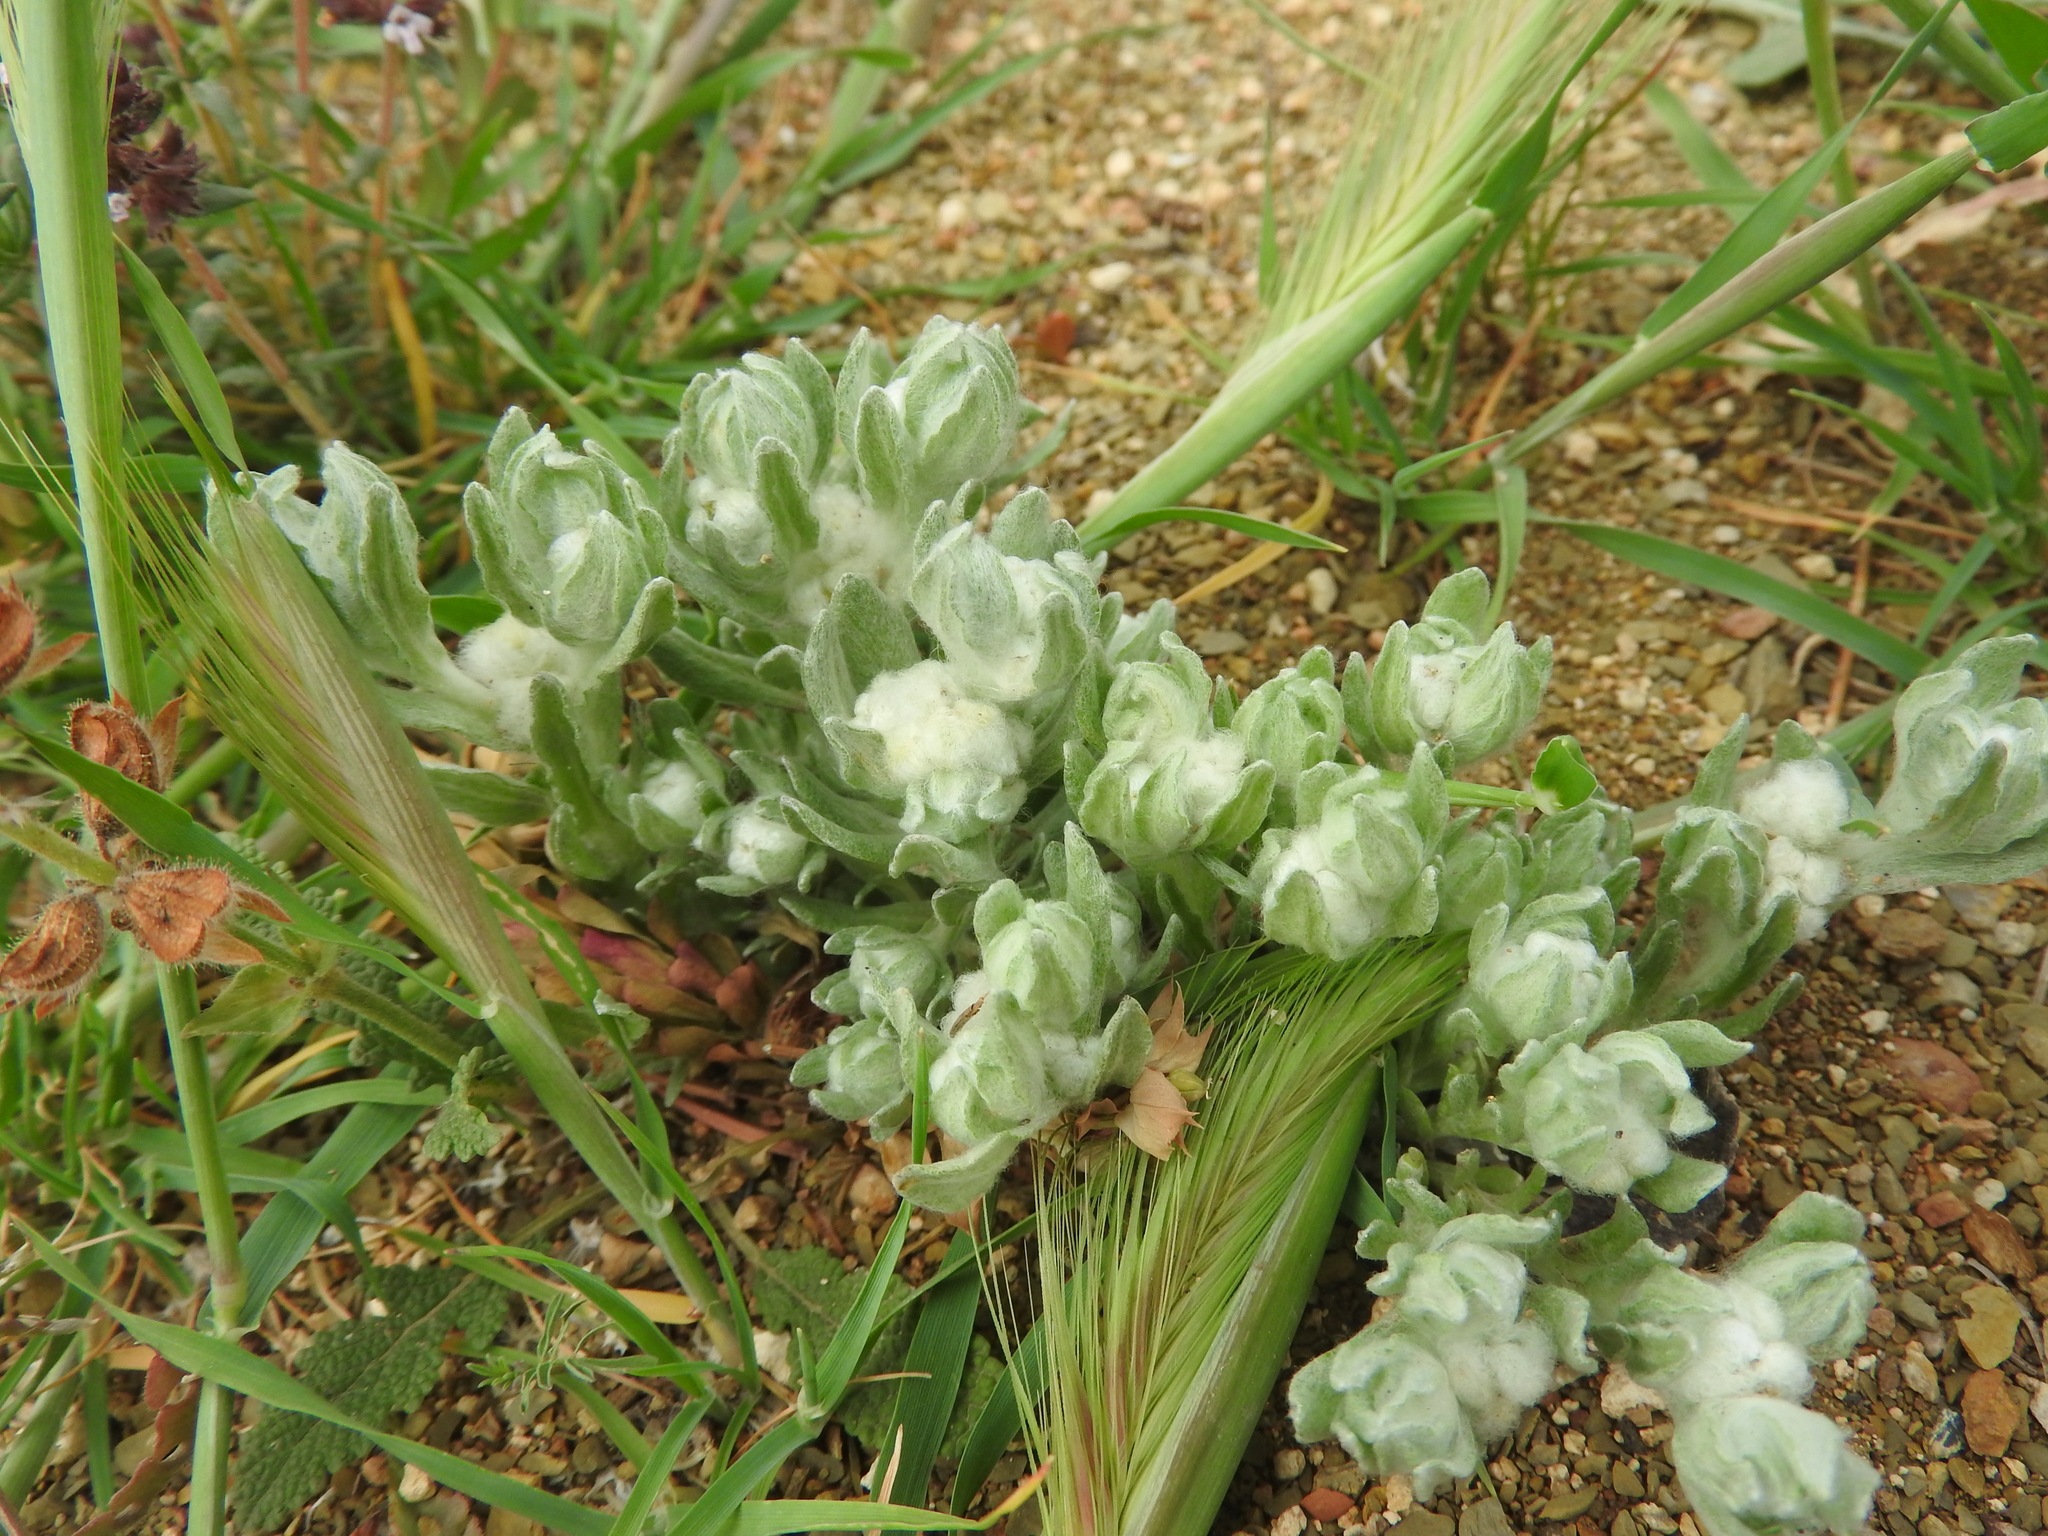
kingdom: Plantae
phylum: Tracheophyta
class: Magnoliopsida
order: Asterales
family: Asteraceae
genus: Bombycilaena
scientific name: Bombycilaena discolor
